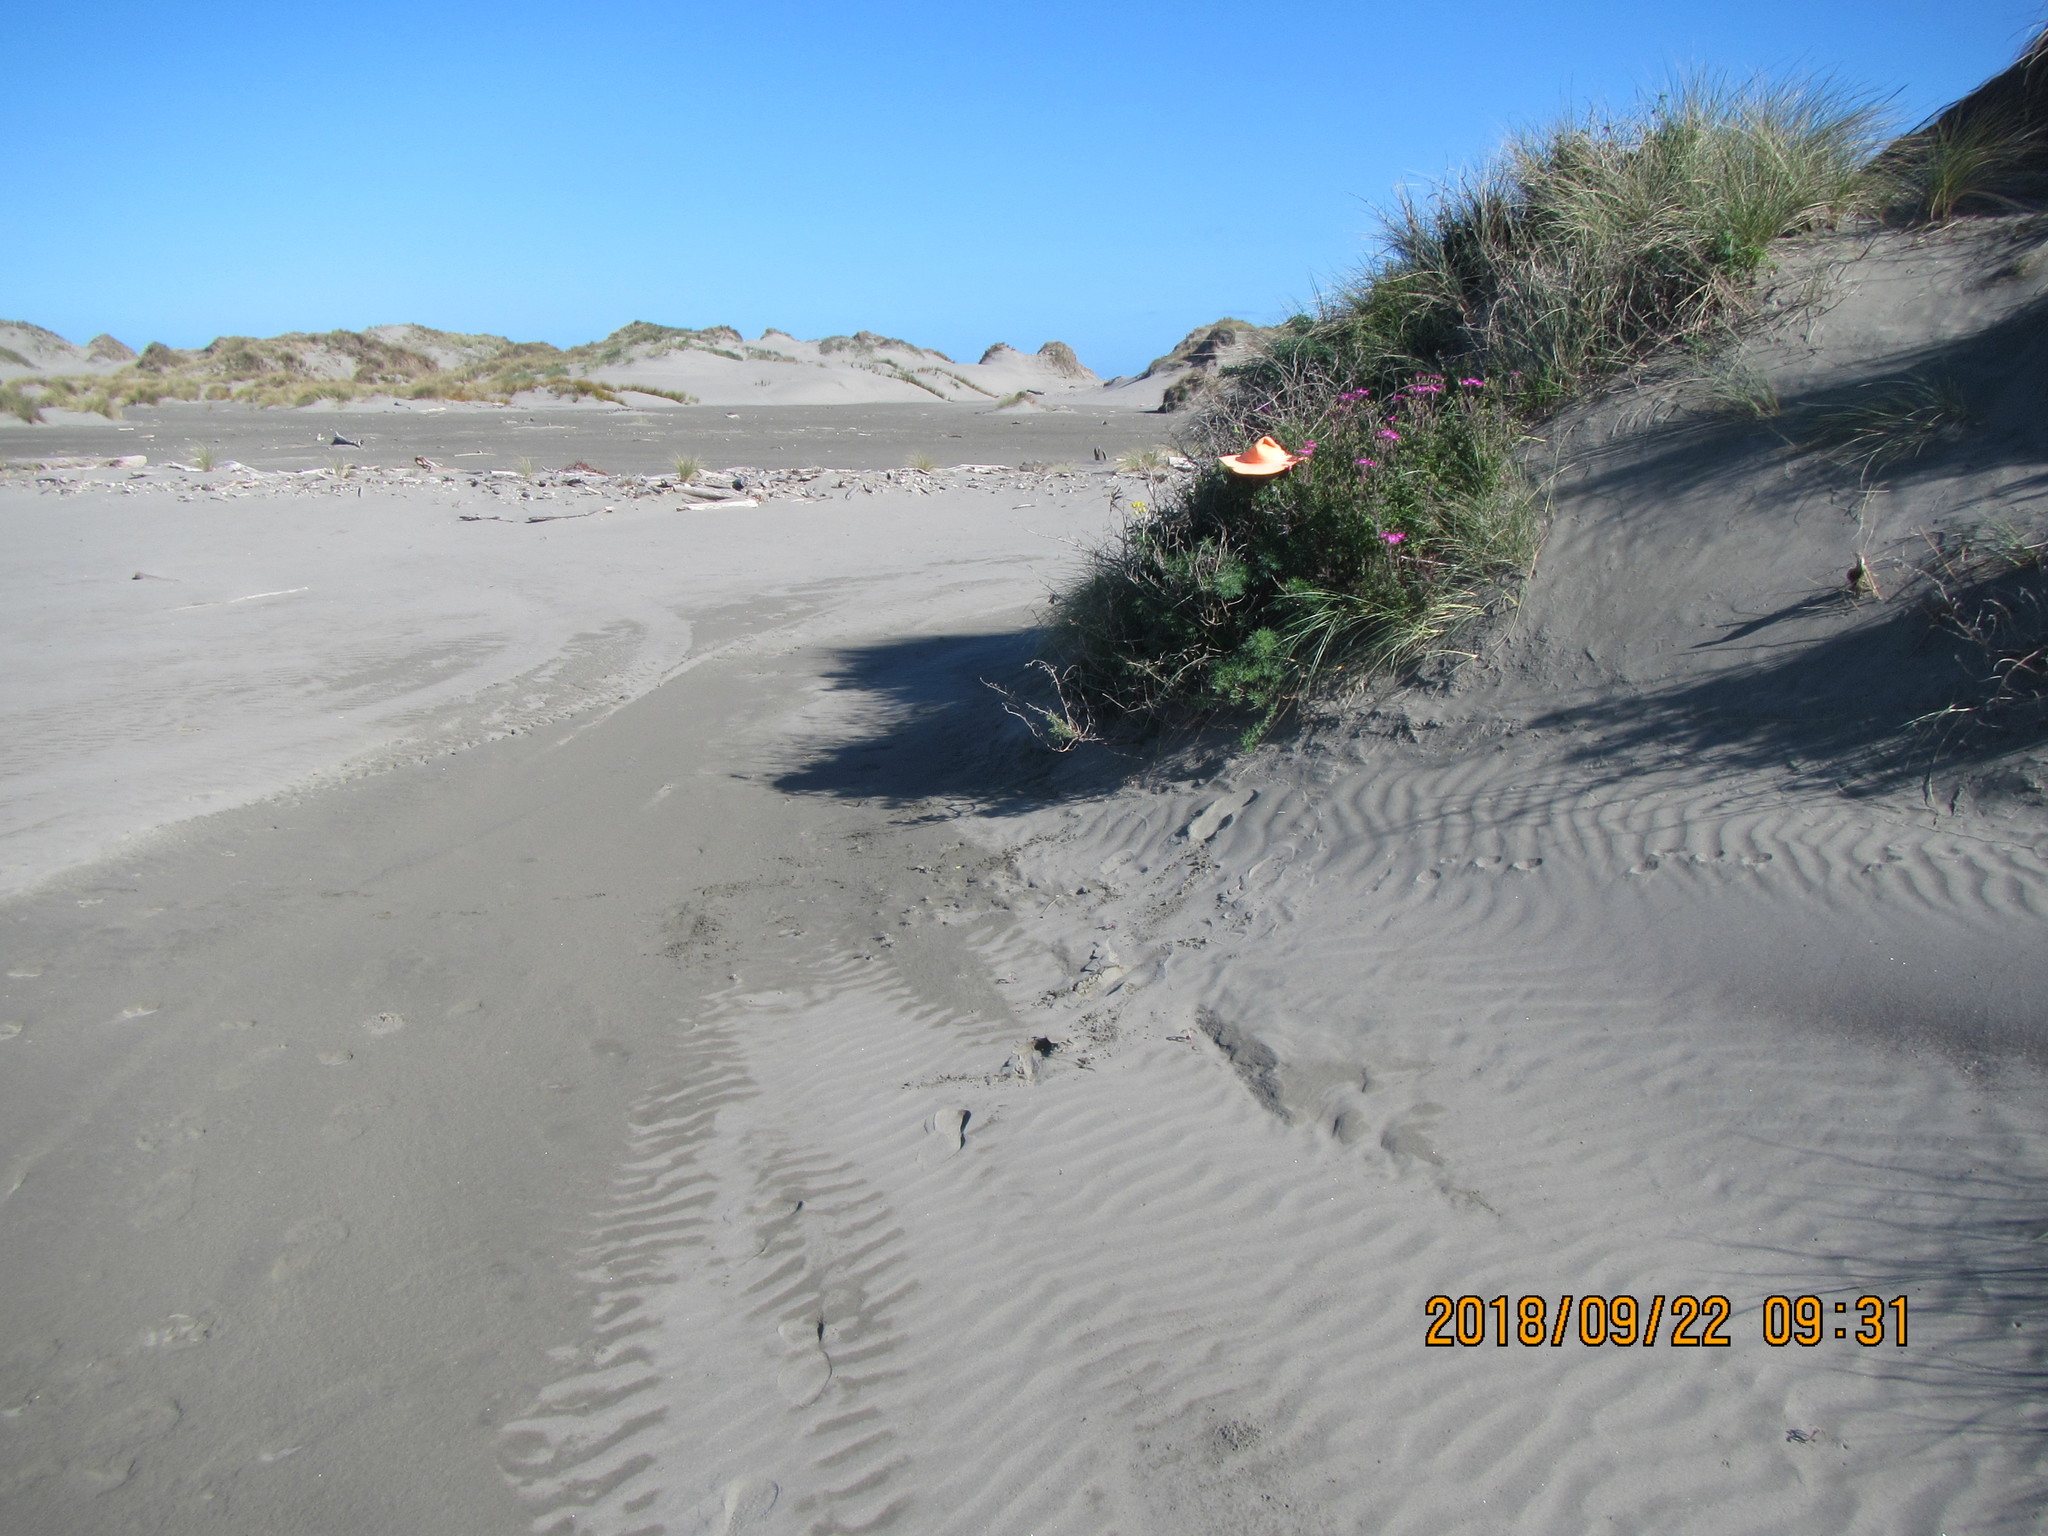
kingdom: Plantae
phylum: Tracheophyta
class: Magnoliopsida
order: Fabales
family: Fabaceae
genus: Lupinus
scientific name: Lupinus arboreus
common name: Yellow bush lupine
